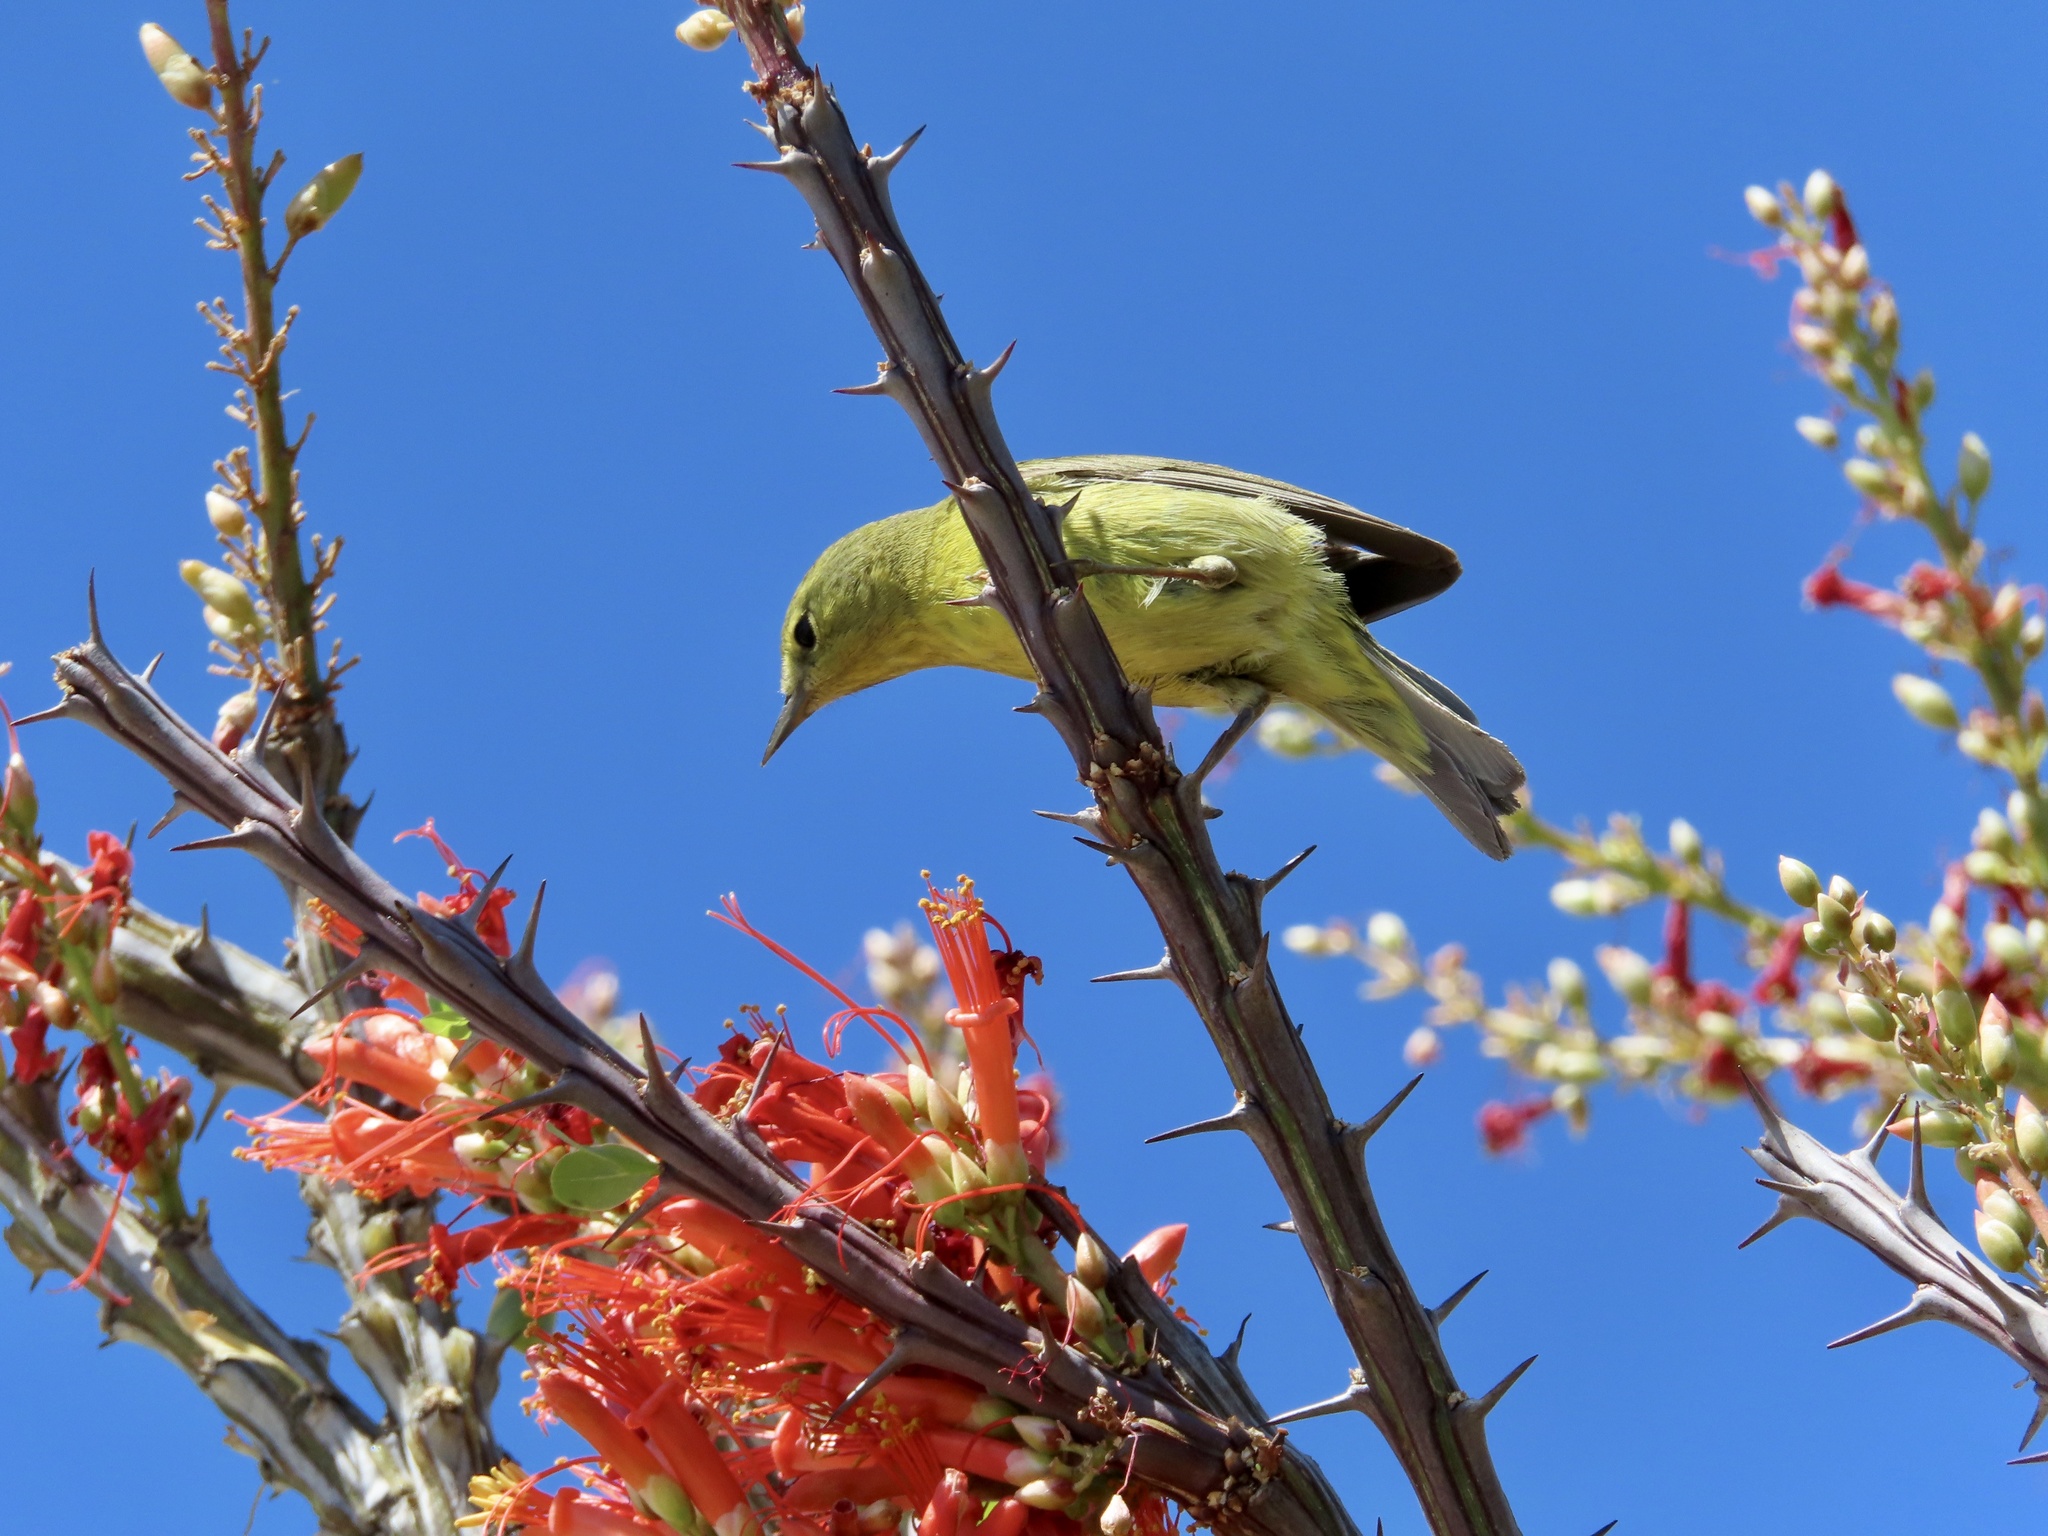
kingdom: Animalia
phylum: Chordata
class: Aves
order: Passeriformes
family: Parulidae
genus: Leiothlypis
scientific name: Leiothlypis celata
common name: Orange-crowned warbler
